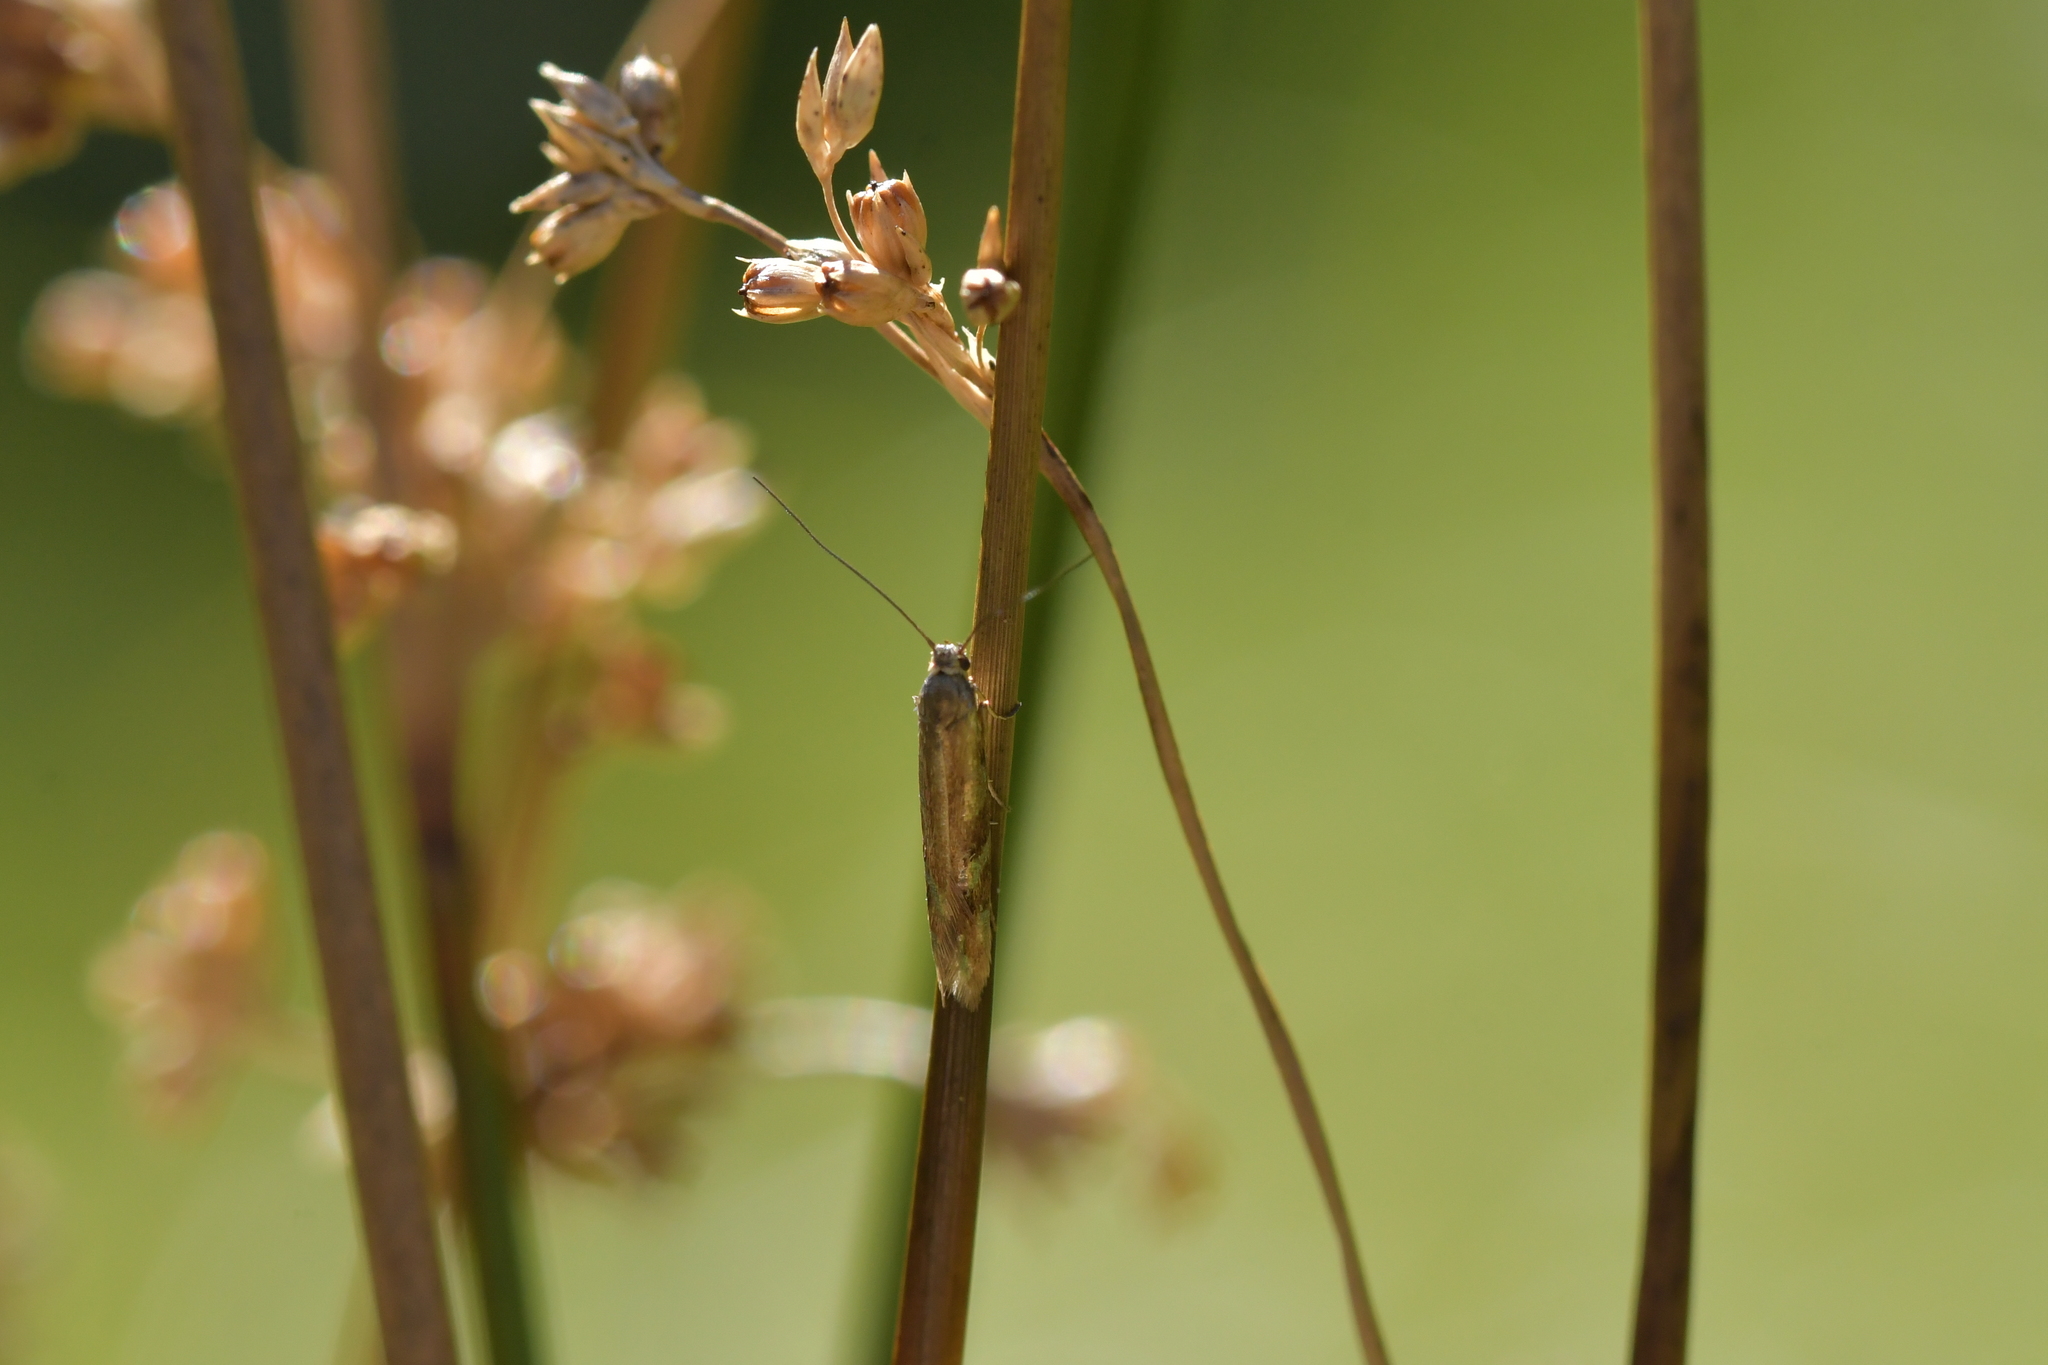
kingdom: Animalia
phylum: Arthropoda
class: Insecta
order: Lepidoptera
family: Glyphipterigidae
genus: Pantosperma
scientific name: Pantosperma holochalca
